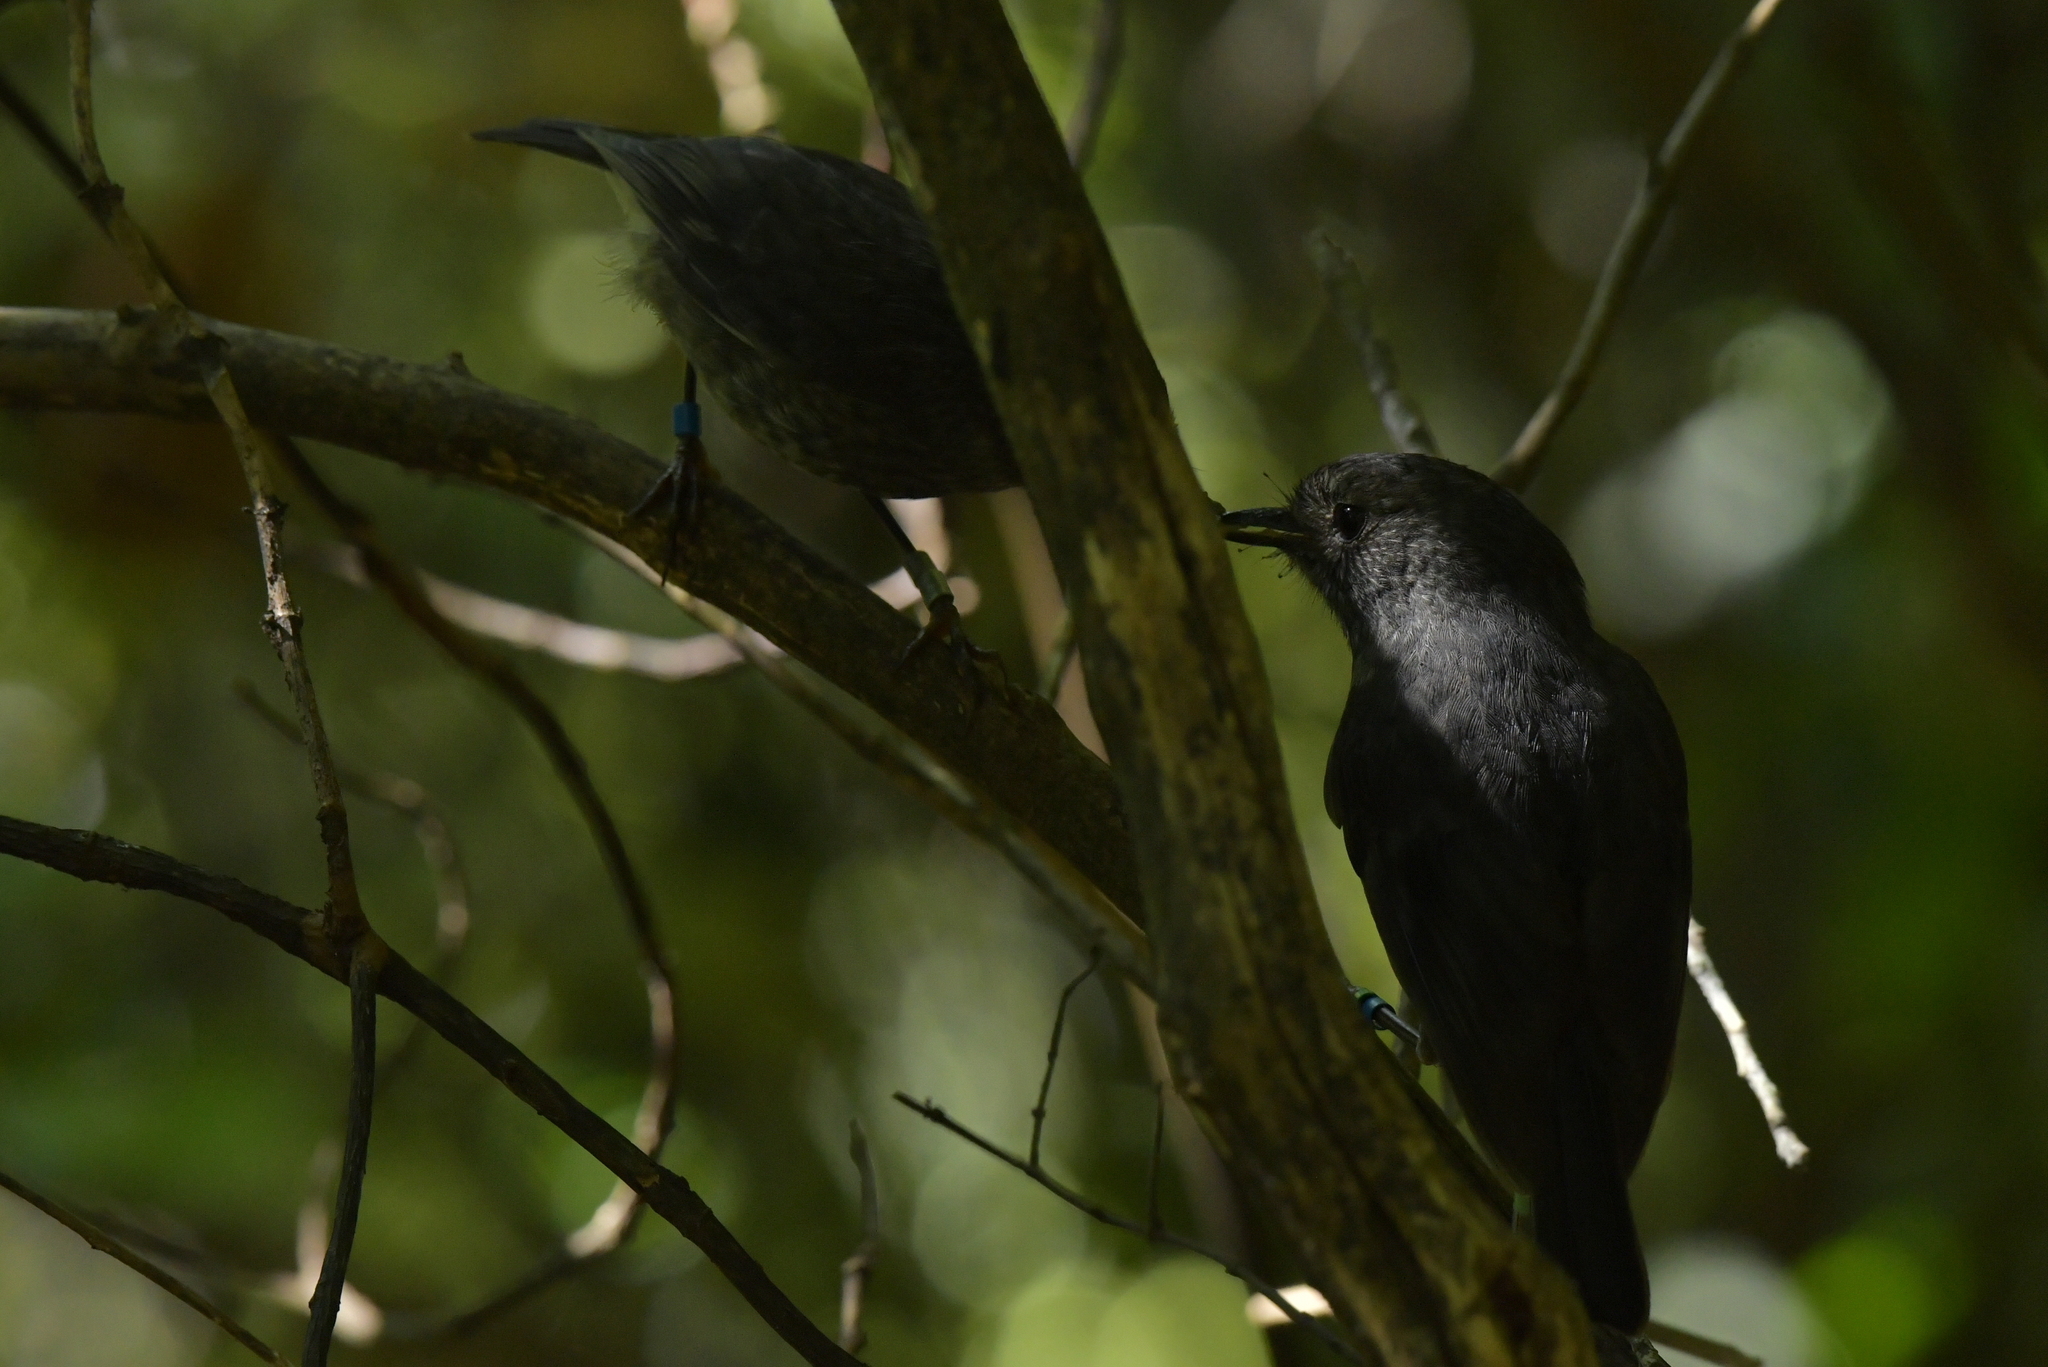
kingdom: Animalia
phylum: Chordata
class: Aves
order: Passeriformes
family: Petroicidae
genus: Petroica
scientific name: Petroica australis
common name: New zealand robin
